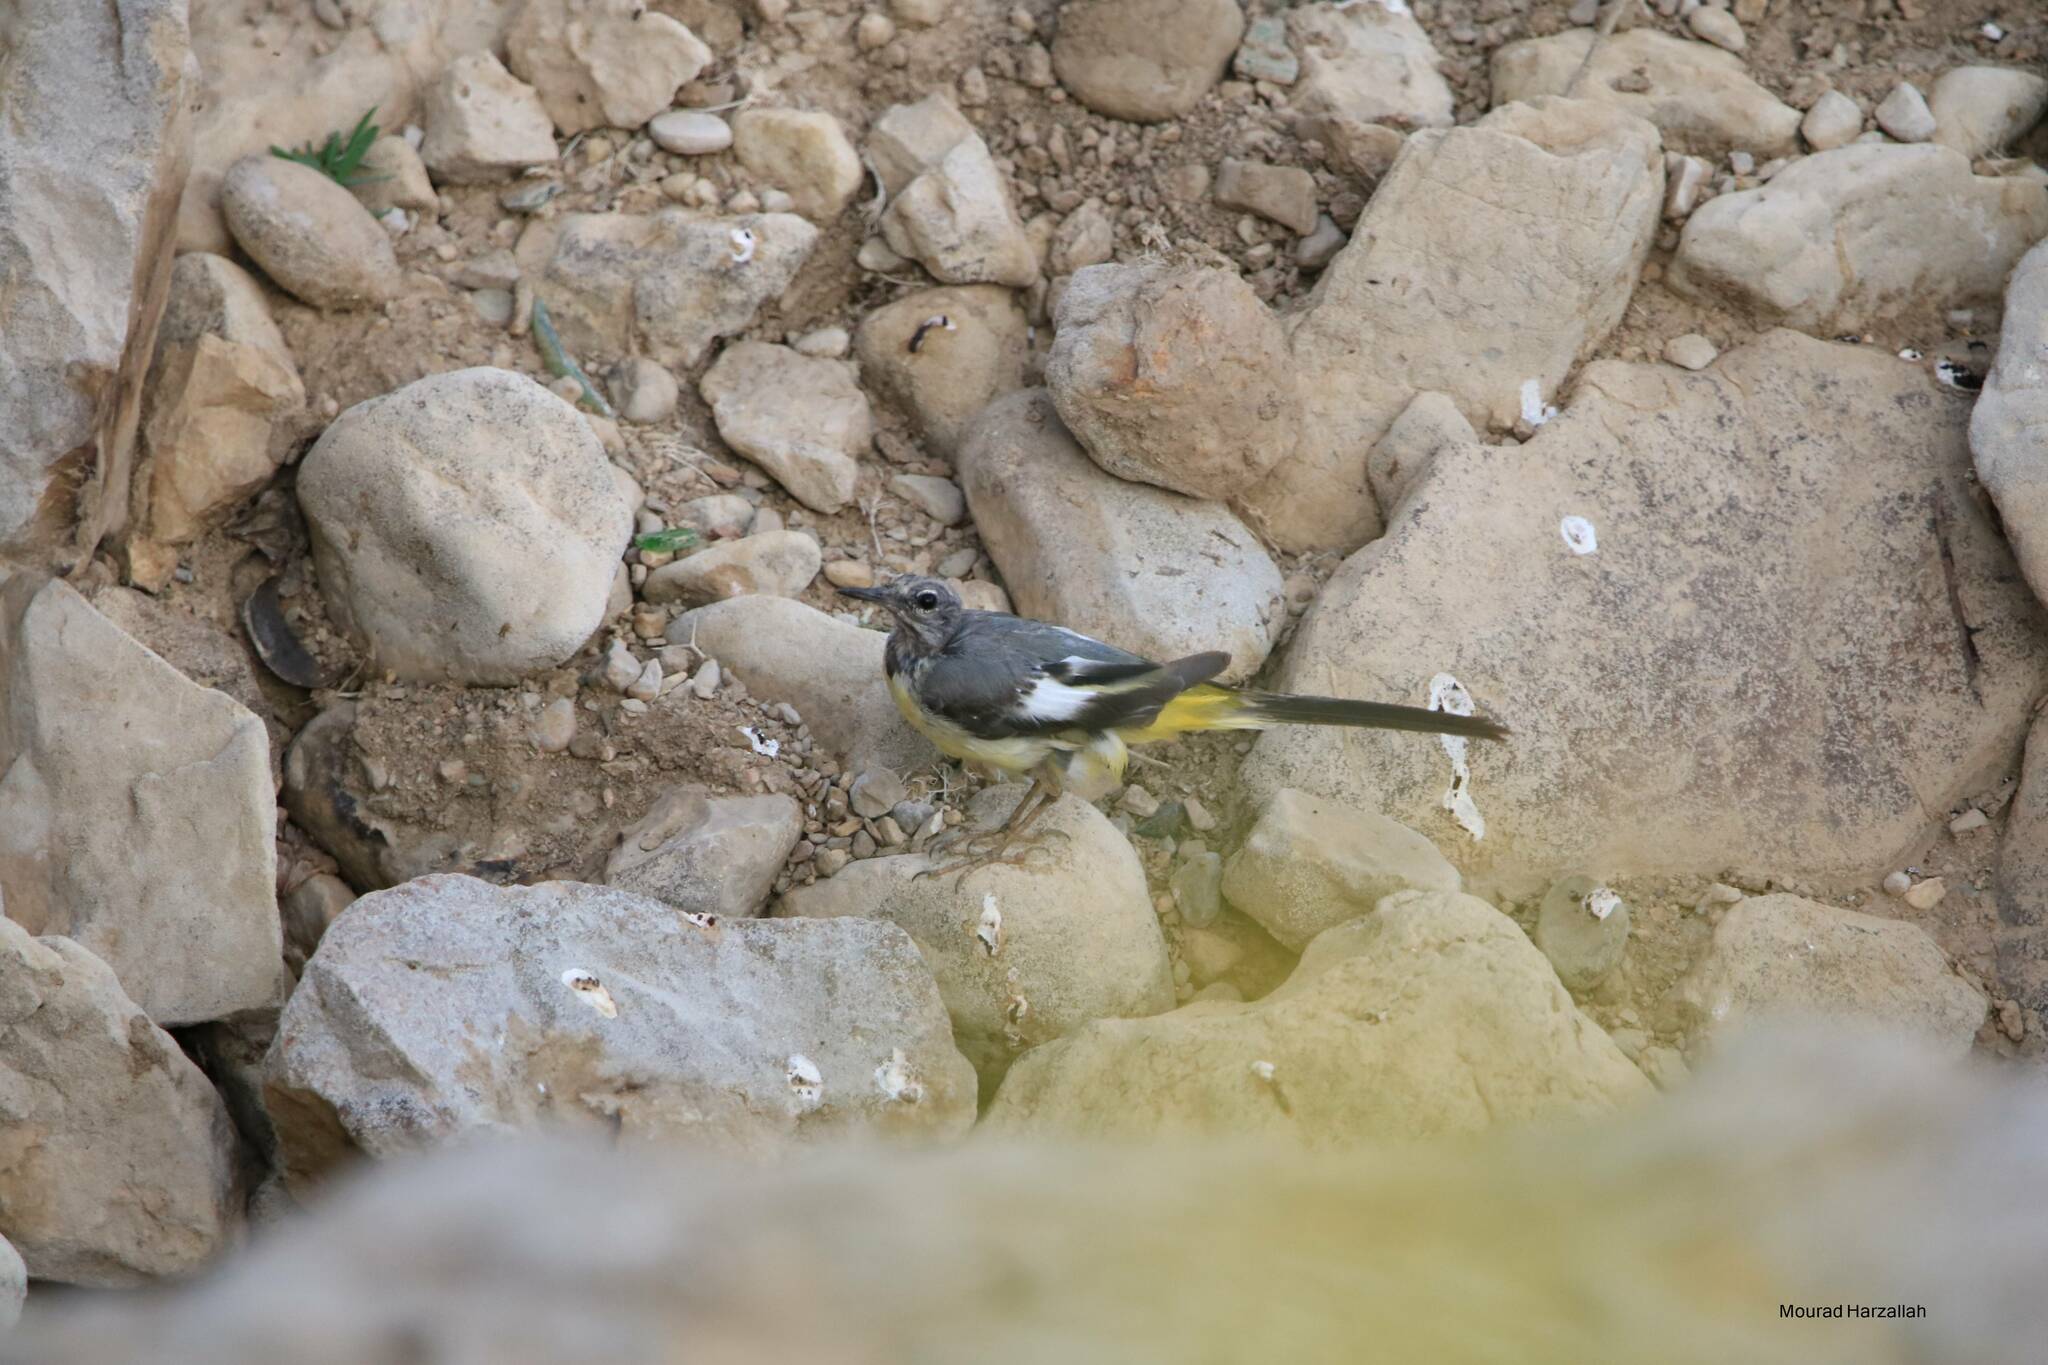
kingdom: Animalia
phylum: Chordata
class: Aves
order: Passeriformes
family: Motacillidae
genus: Motacilla
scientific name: Motacilla cinerea
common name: Grey wagtail
